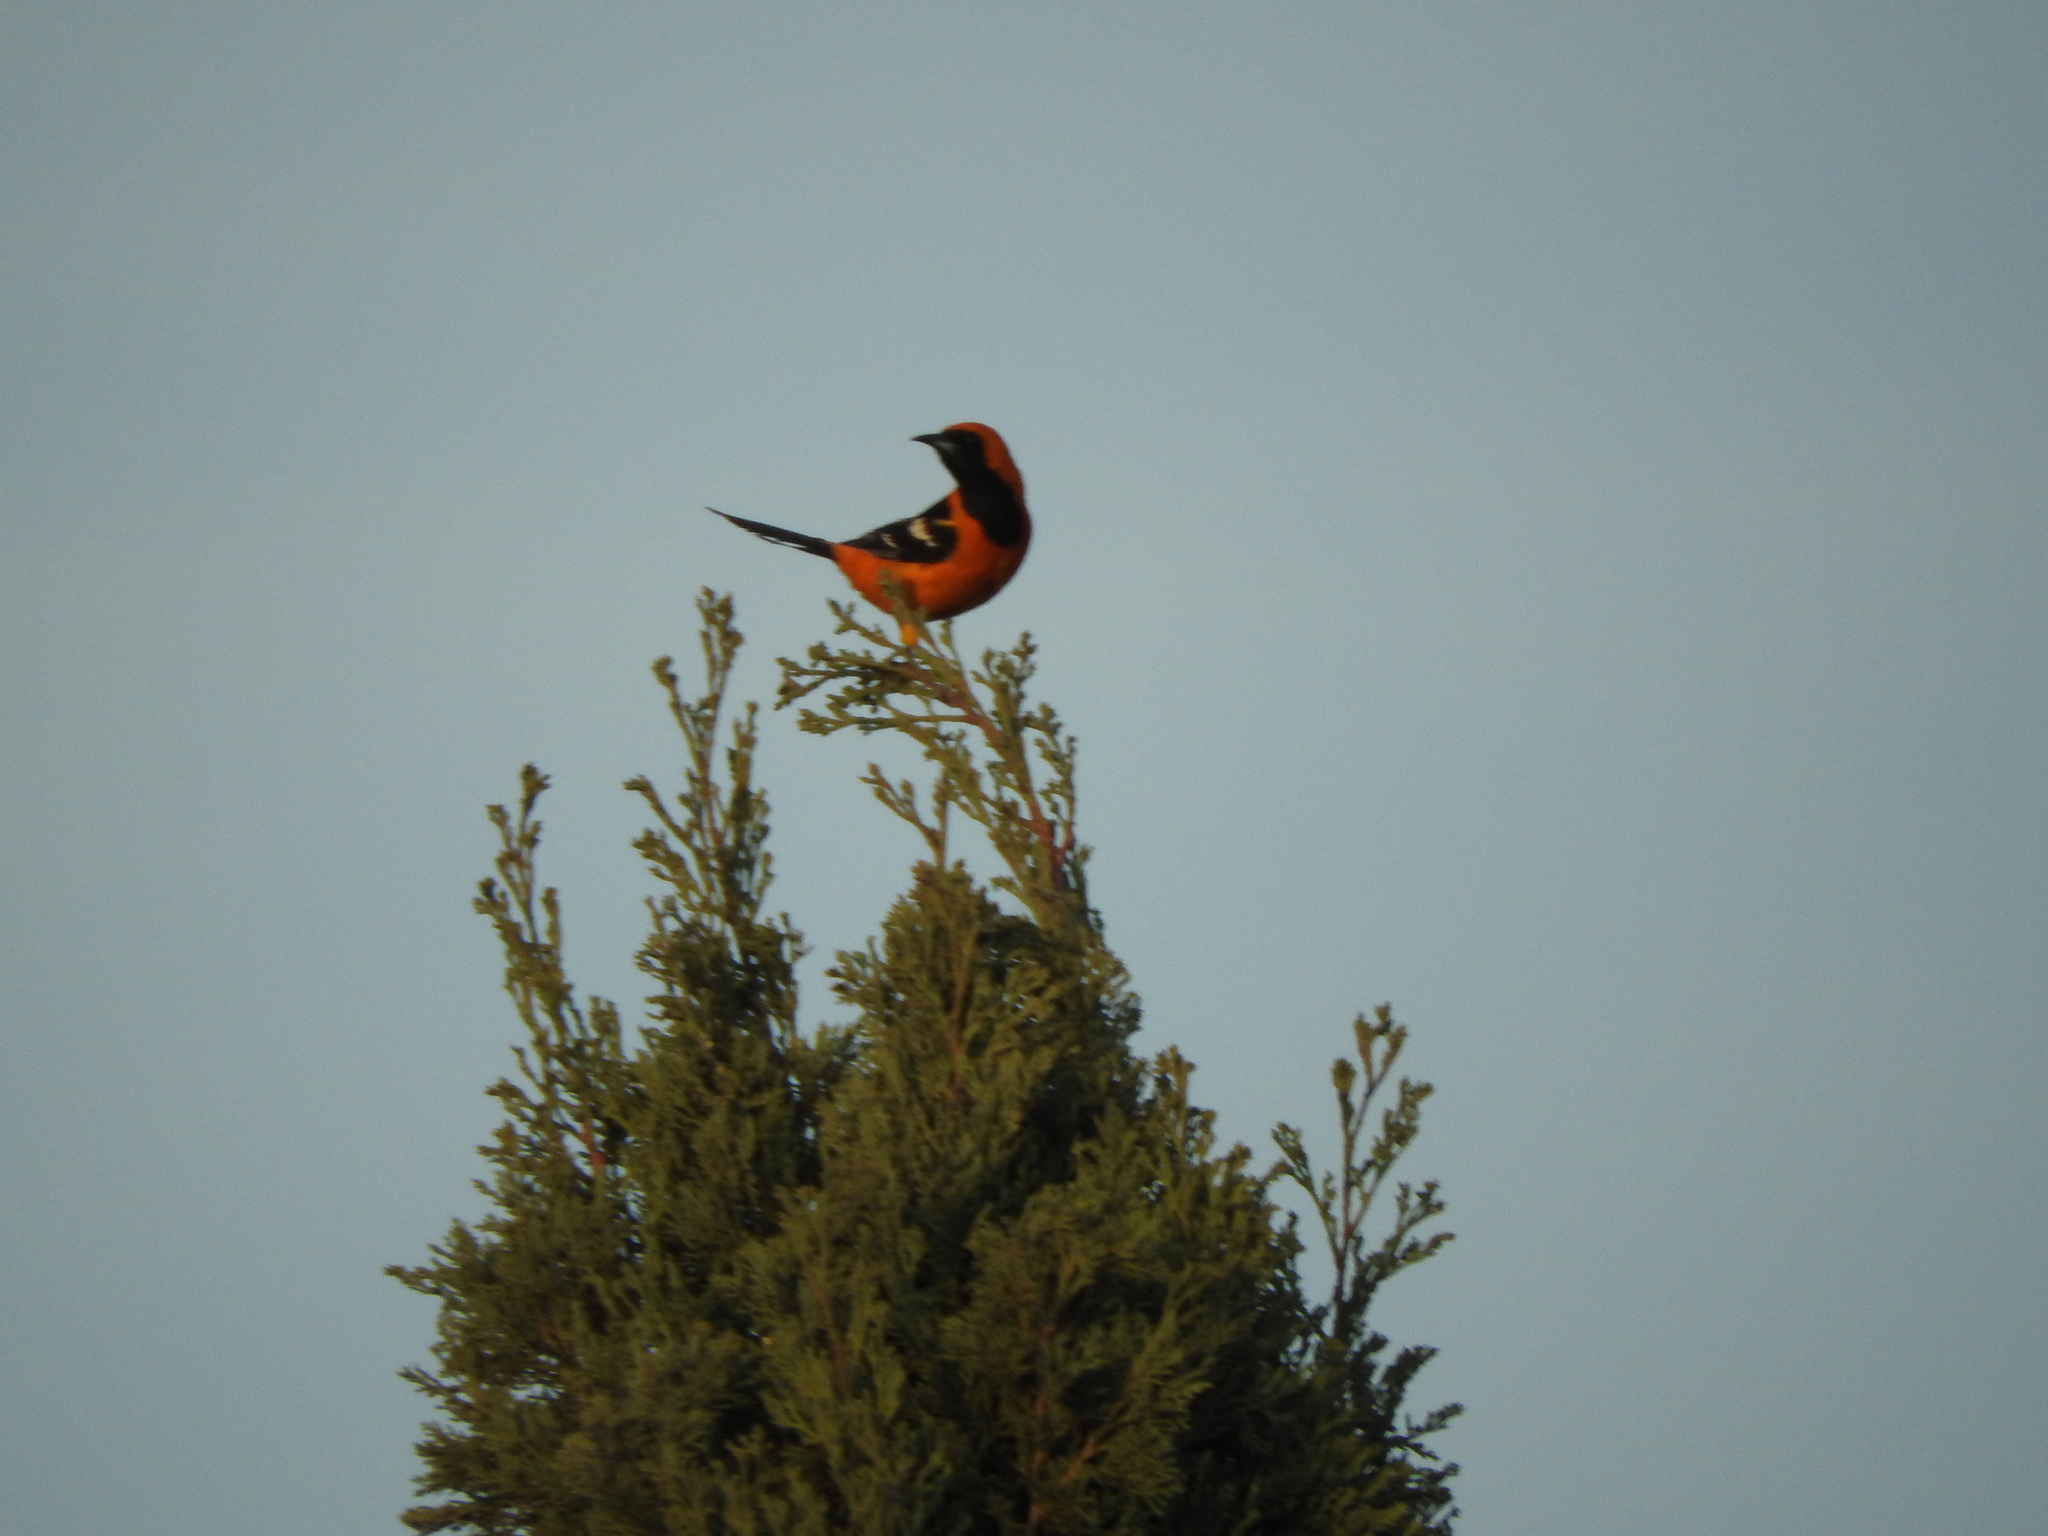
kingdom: Animalia
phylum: Chordata
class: Aves
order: Passeriformes
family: Icteridae
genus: Icterus
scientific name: Icterus cucullatus
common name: Hooded oriole
